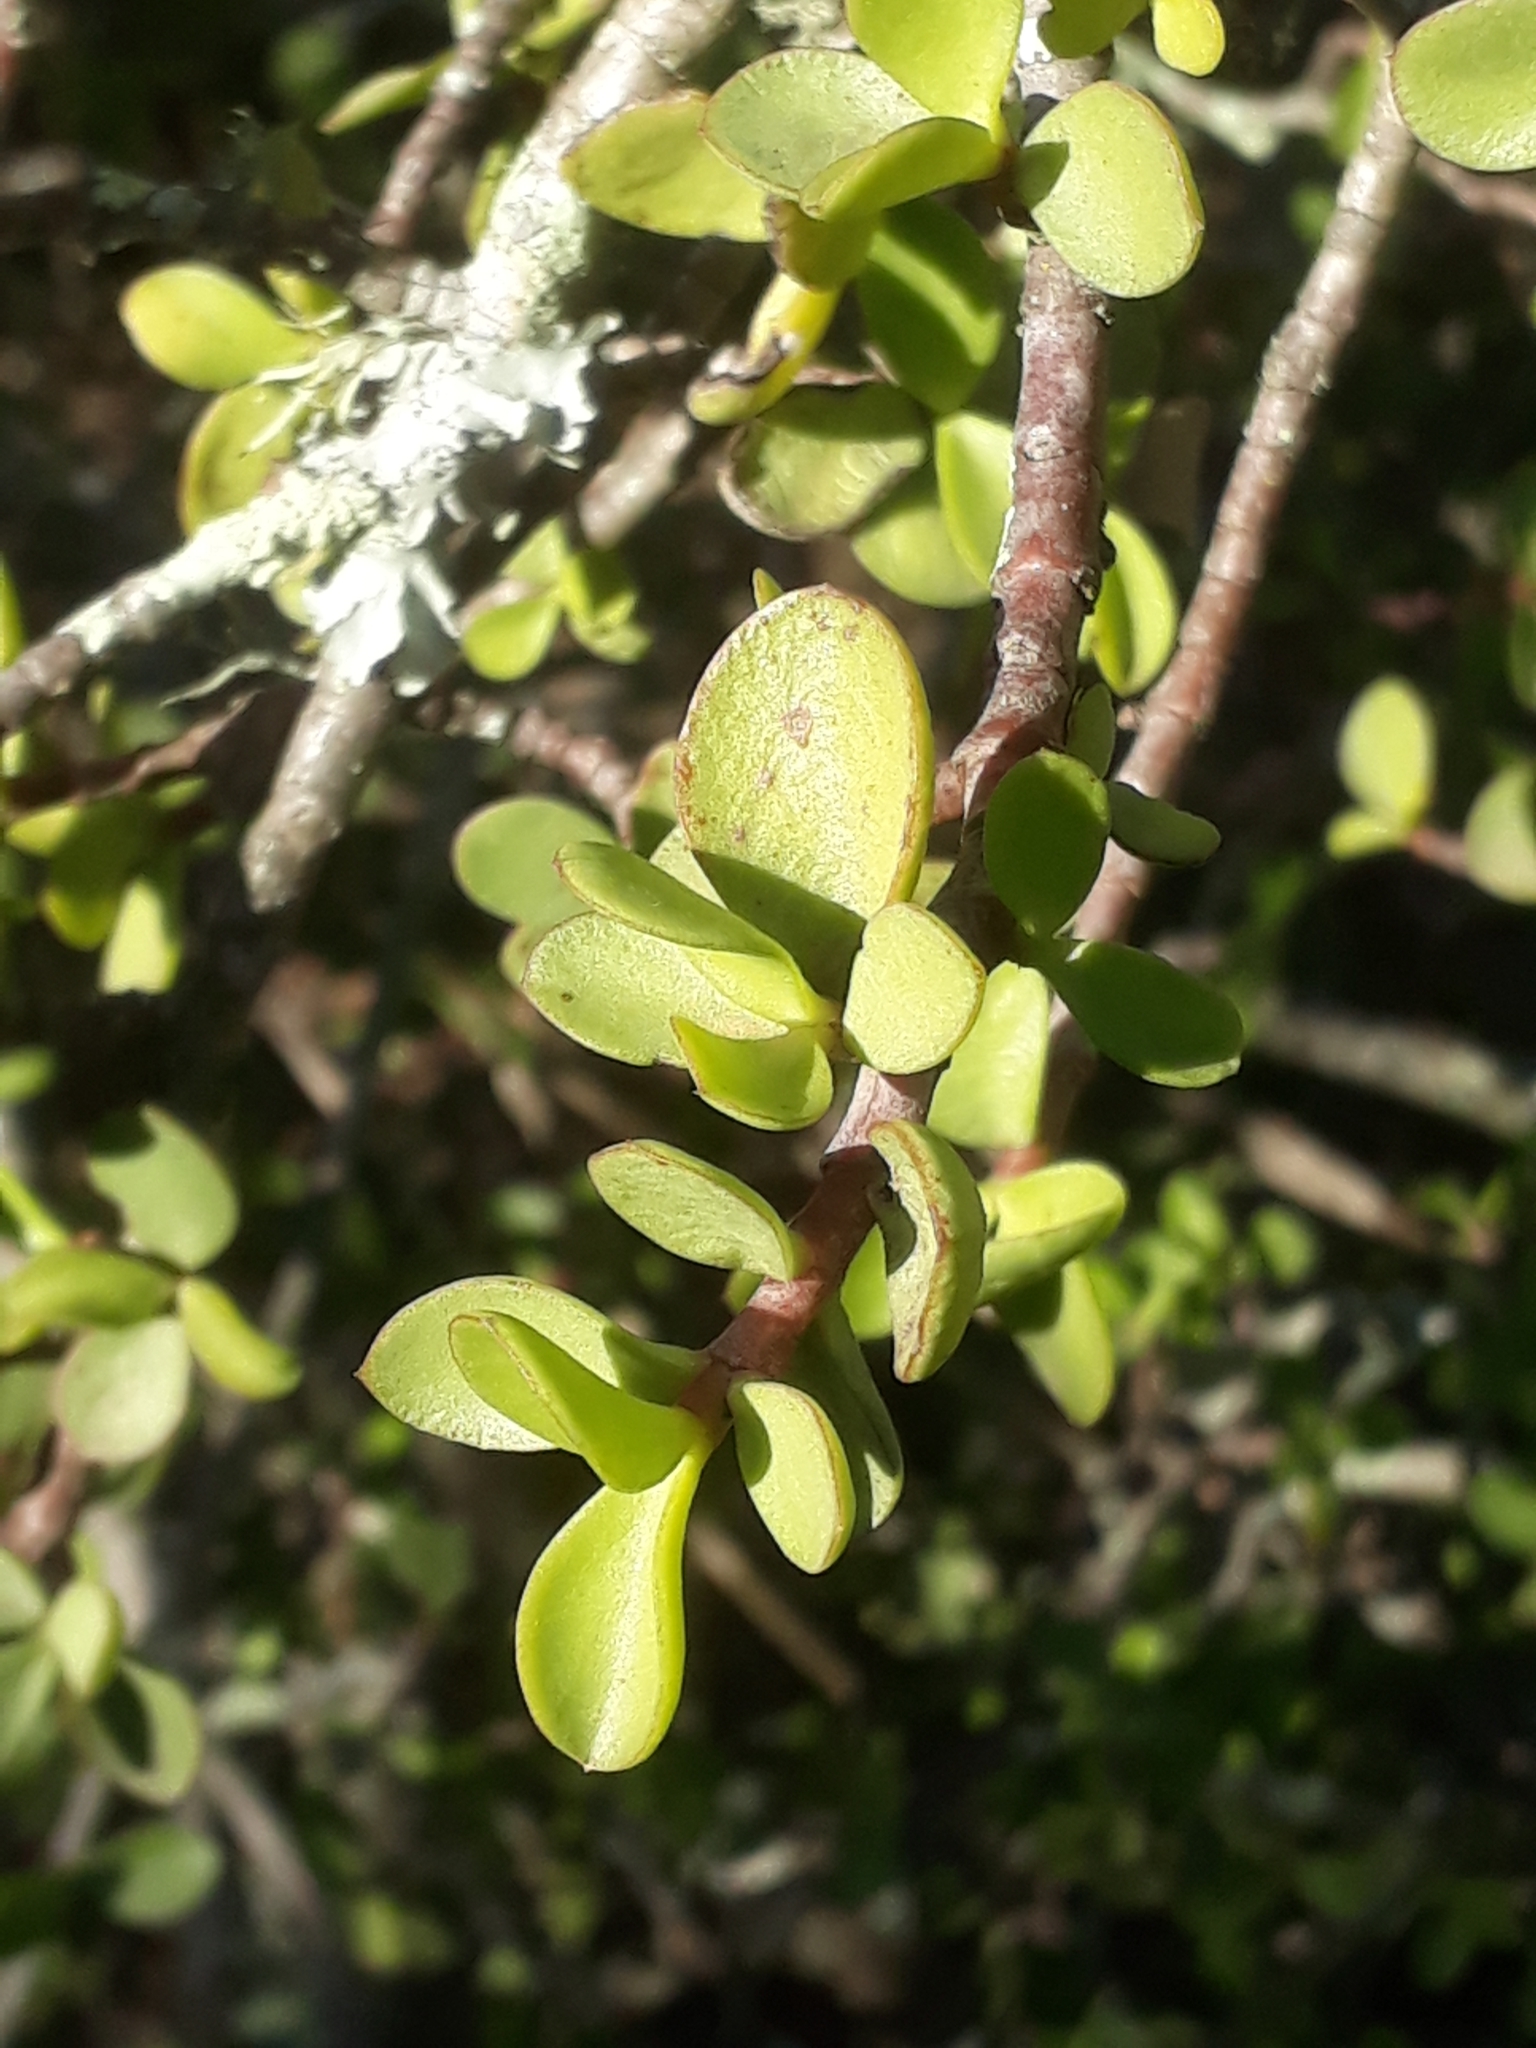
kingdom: Plantae
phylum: Tracheophyta
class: Magnoliopsida
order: Caryophyllales
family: Didiereaceae
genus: Portulacaria
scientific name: Portulacaria afra
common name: Elephant-bush
